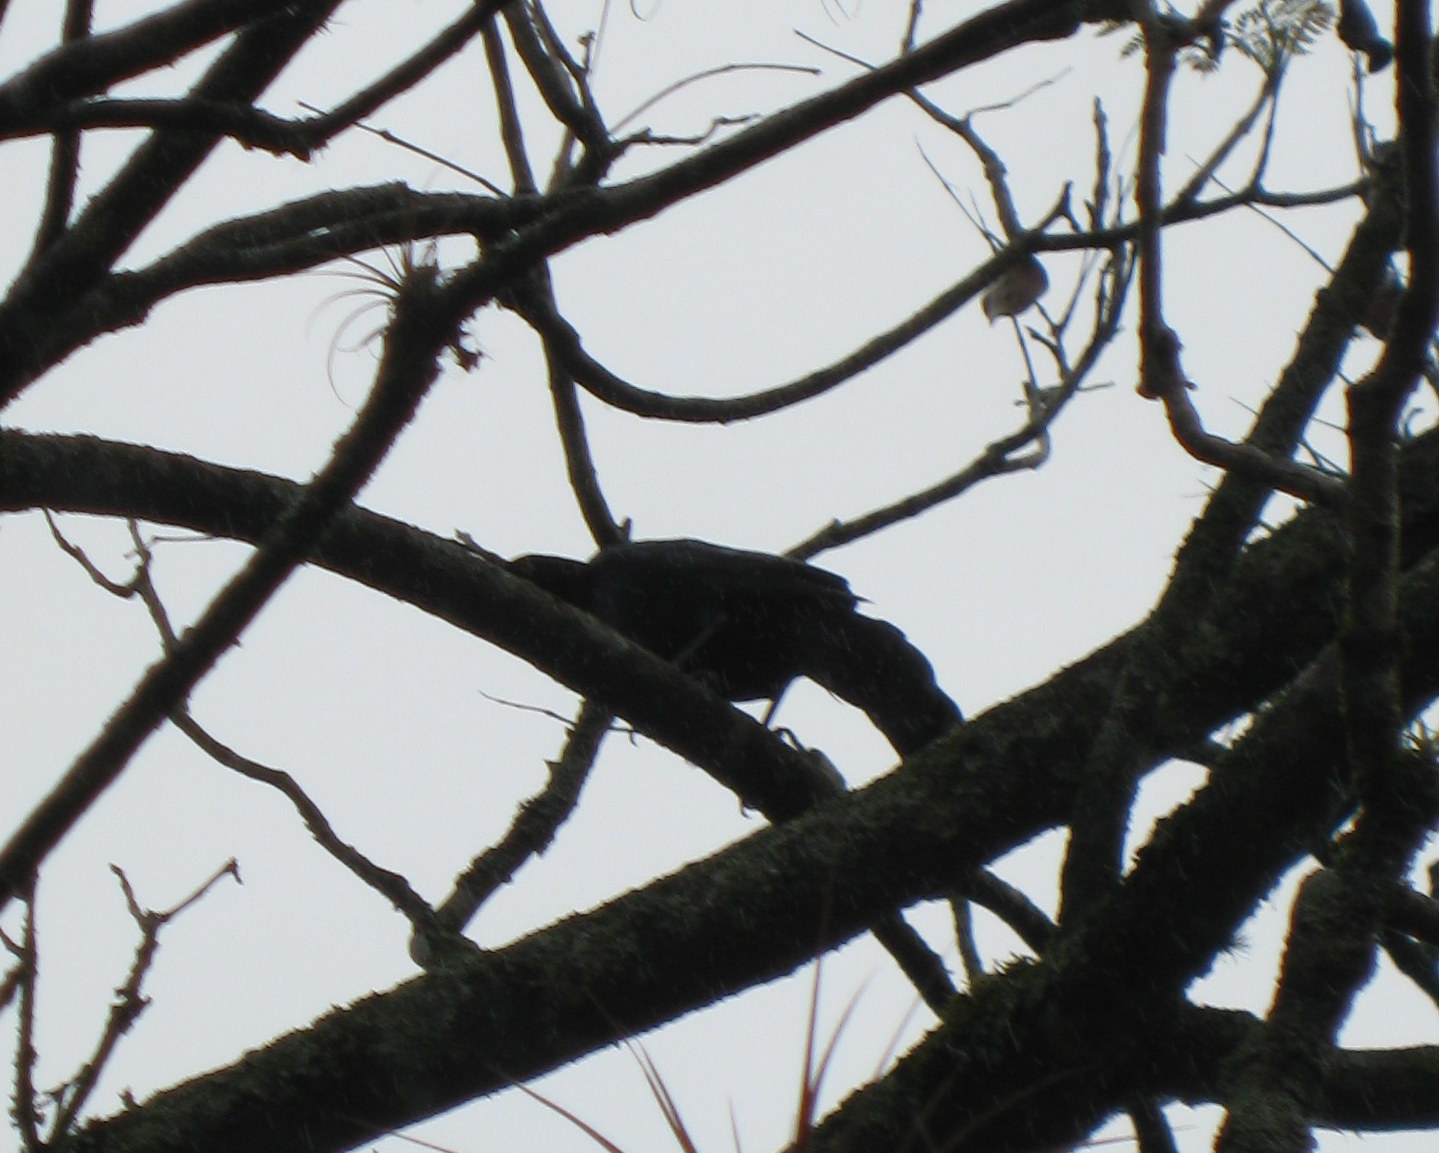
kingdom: Animalia
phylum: Chordata
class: Aves
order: Passeriformes
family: Icteridae
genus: Quiscalus
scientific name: Quiscalus mexicanus
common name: Great-tailed grackle
